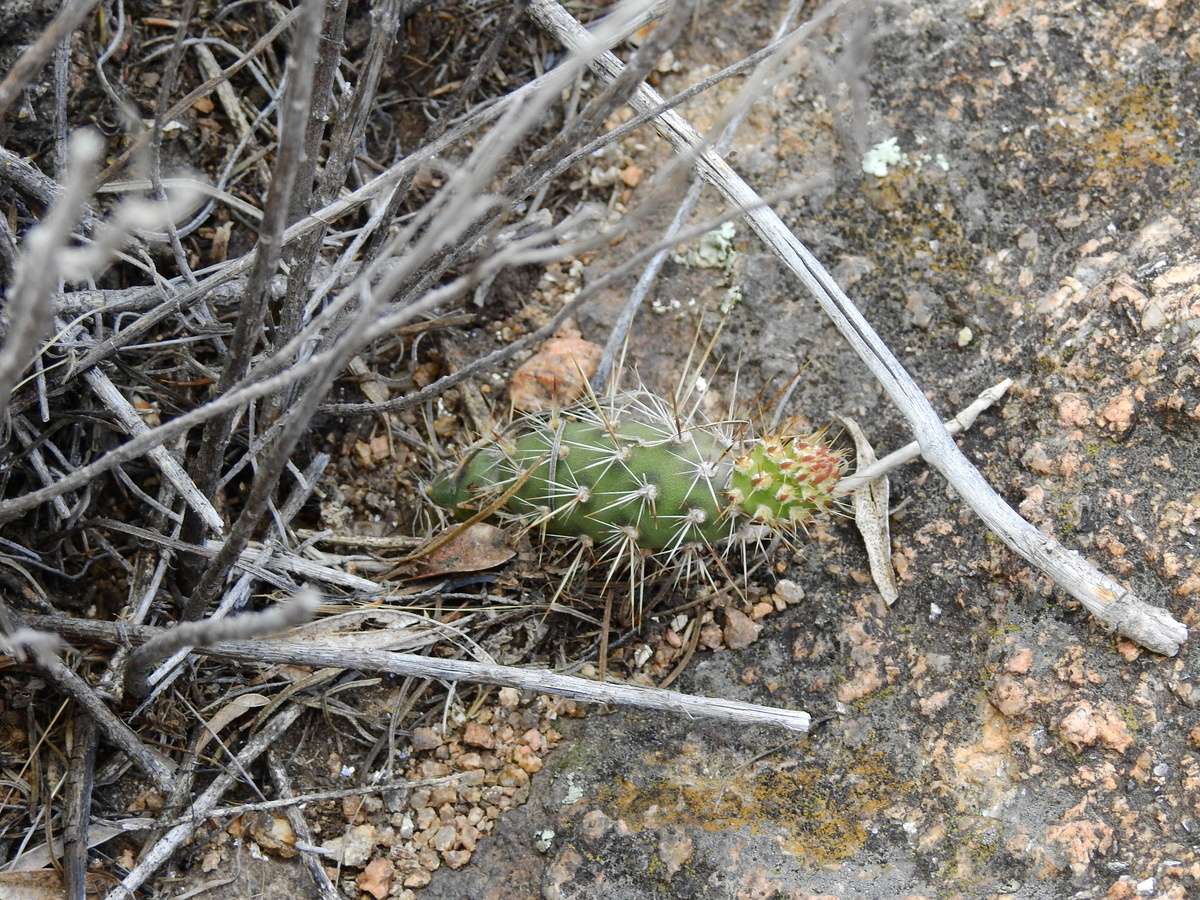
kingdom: Plantae
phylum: Tracheophyta
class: Magnoliopsida
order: Caryophyllales
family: Cactaceae
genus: Opuntia
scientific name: Opuntia fragilis
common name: Brittle cactus
